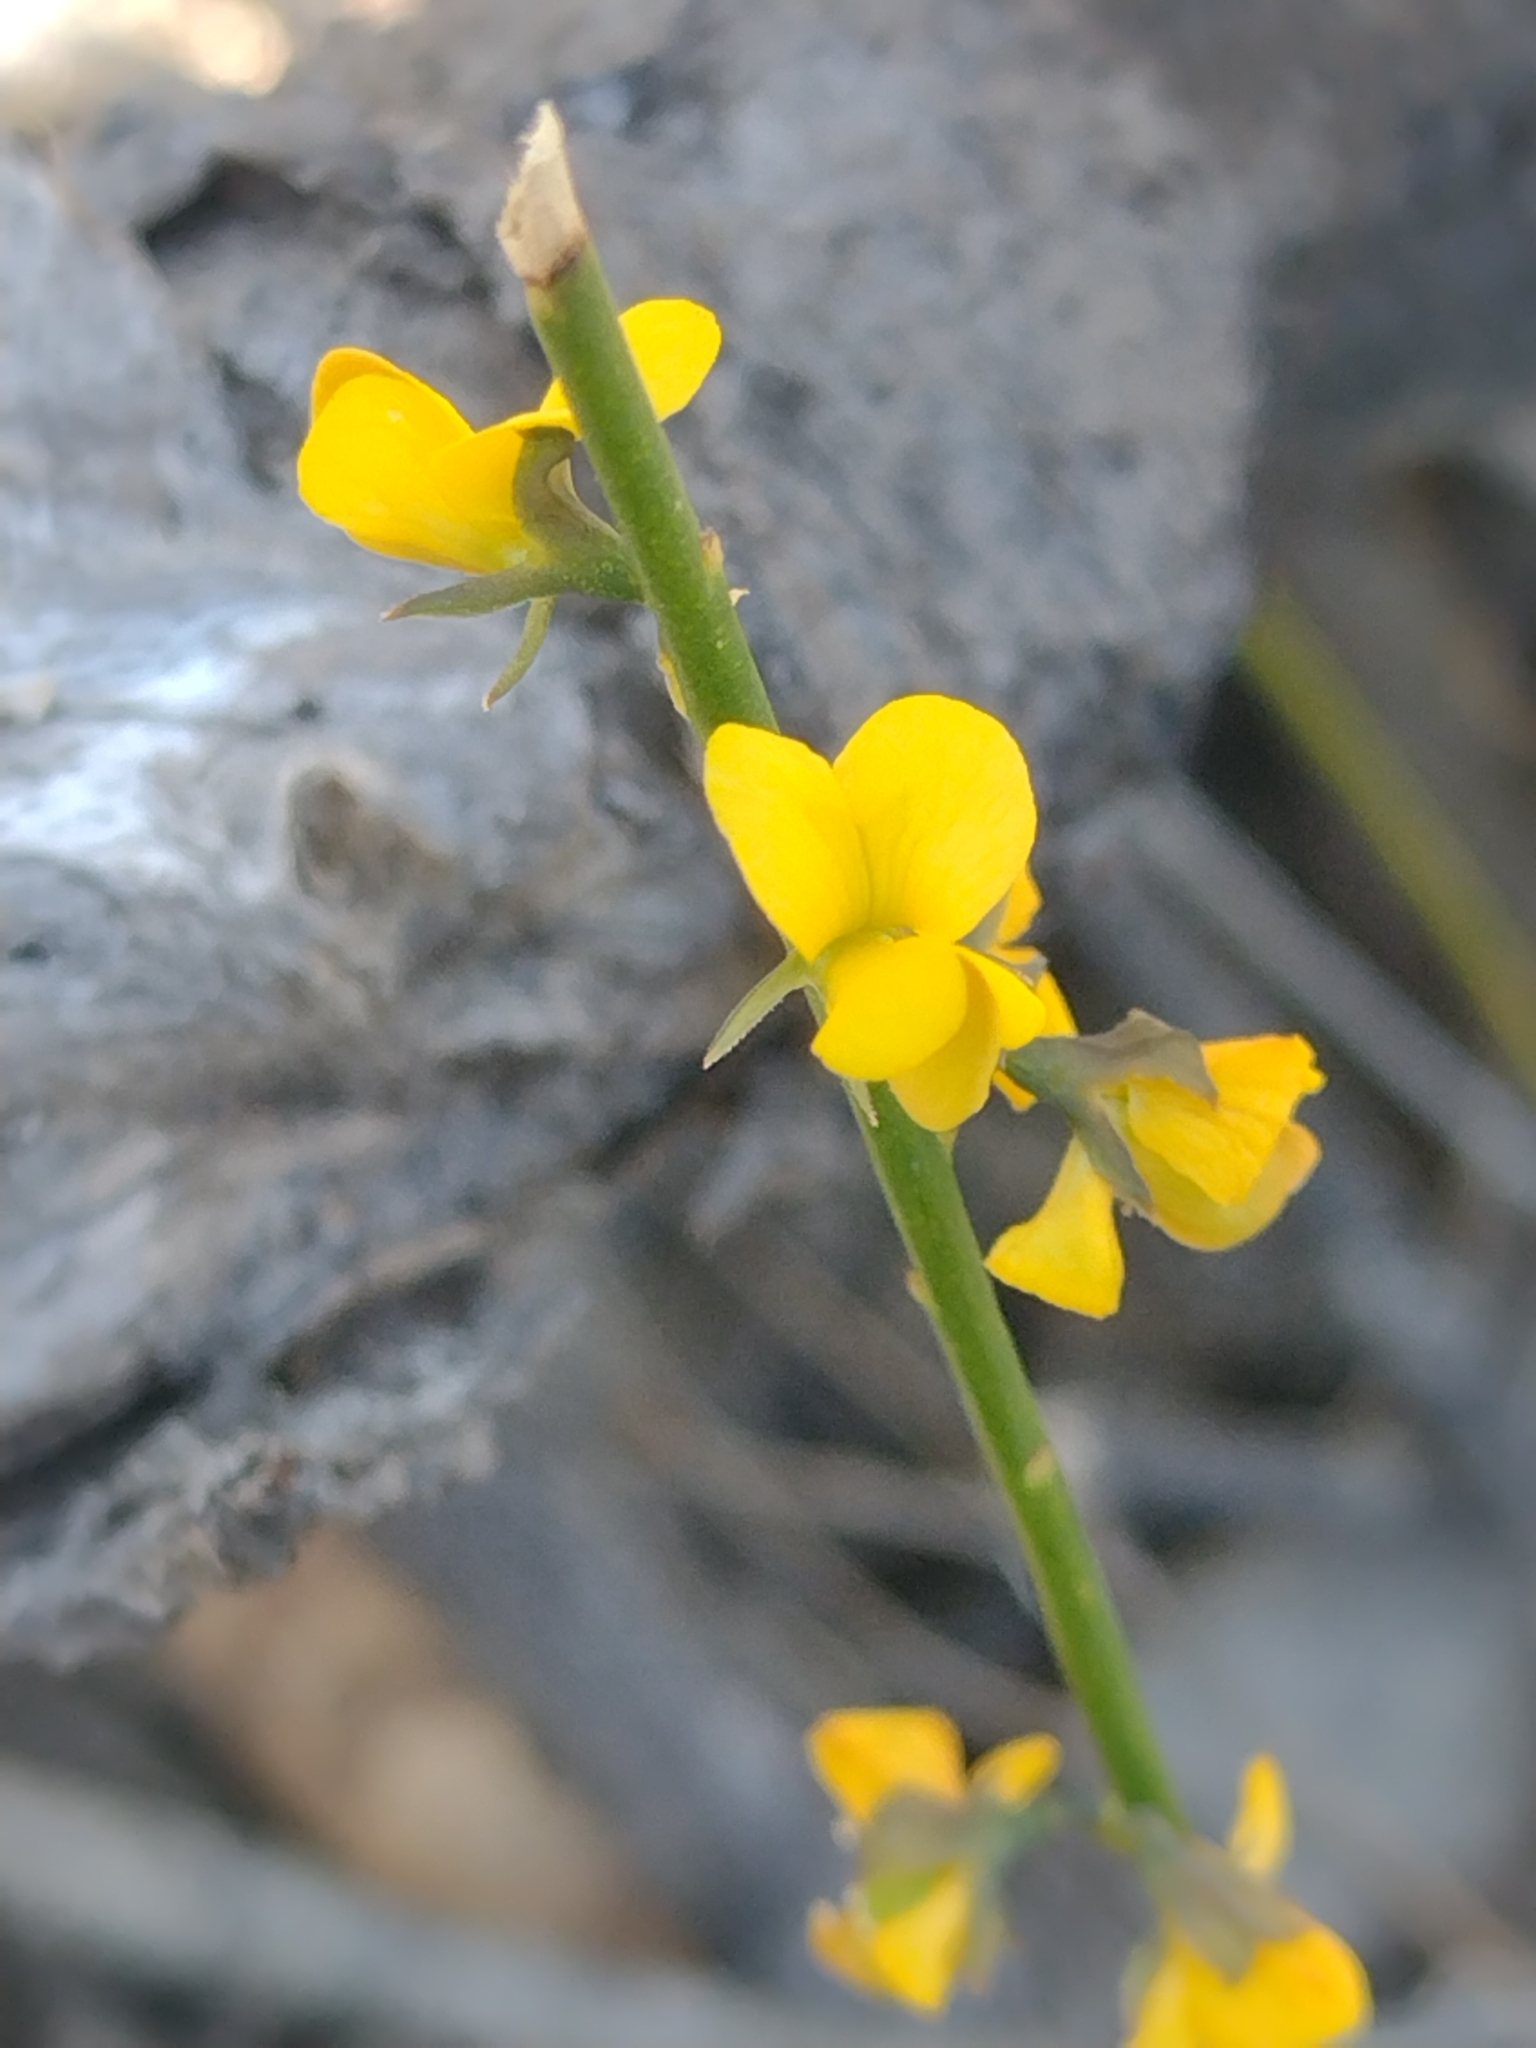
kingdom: Plantae
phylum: Tracheophyta
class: Magnoliopsida
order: Fabales
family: Fabaceae
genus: Sphaerolobium
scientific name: Sphaerolobium minus
